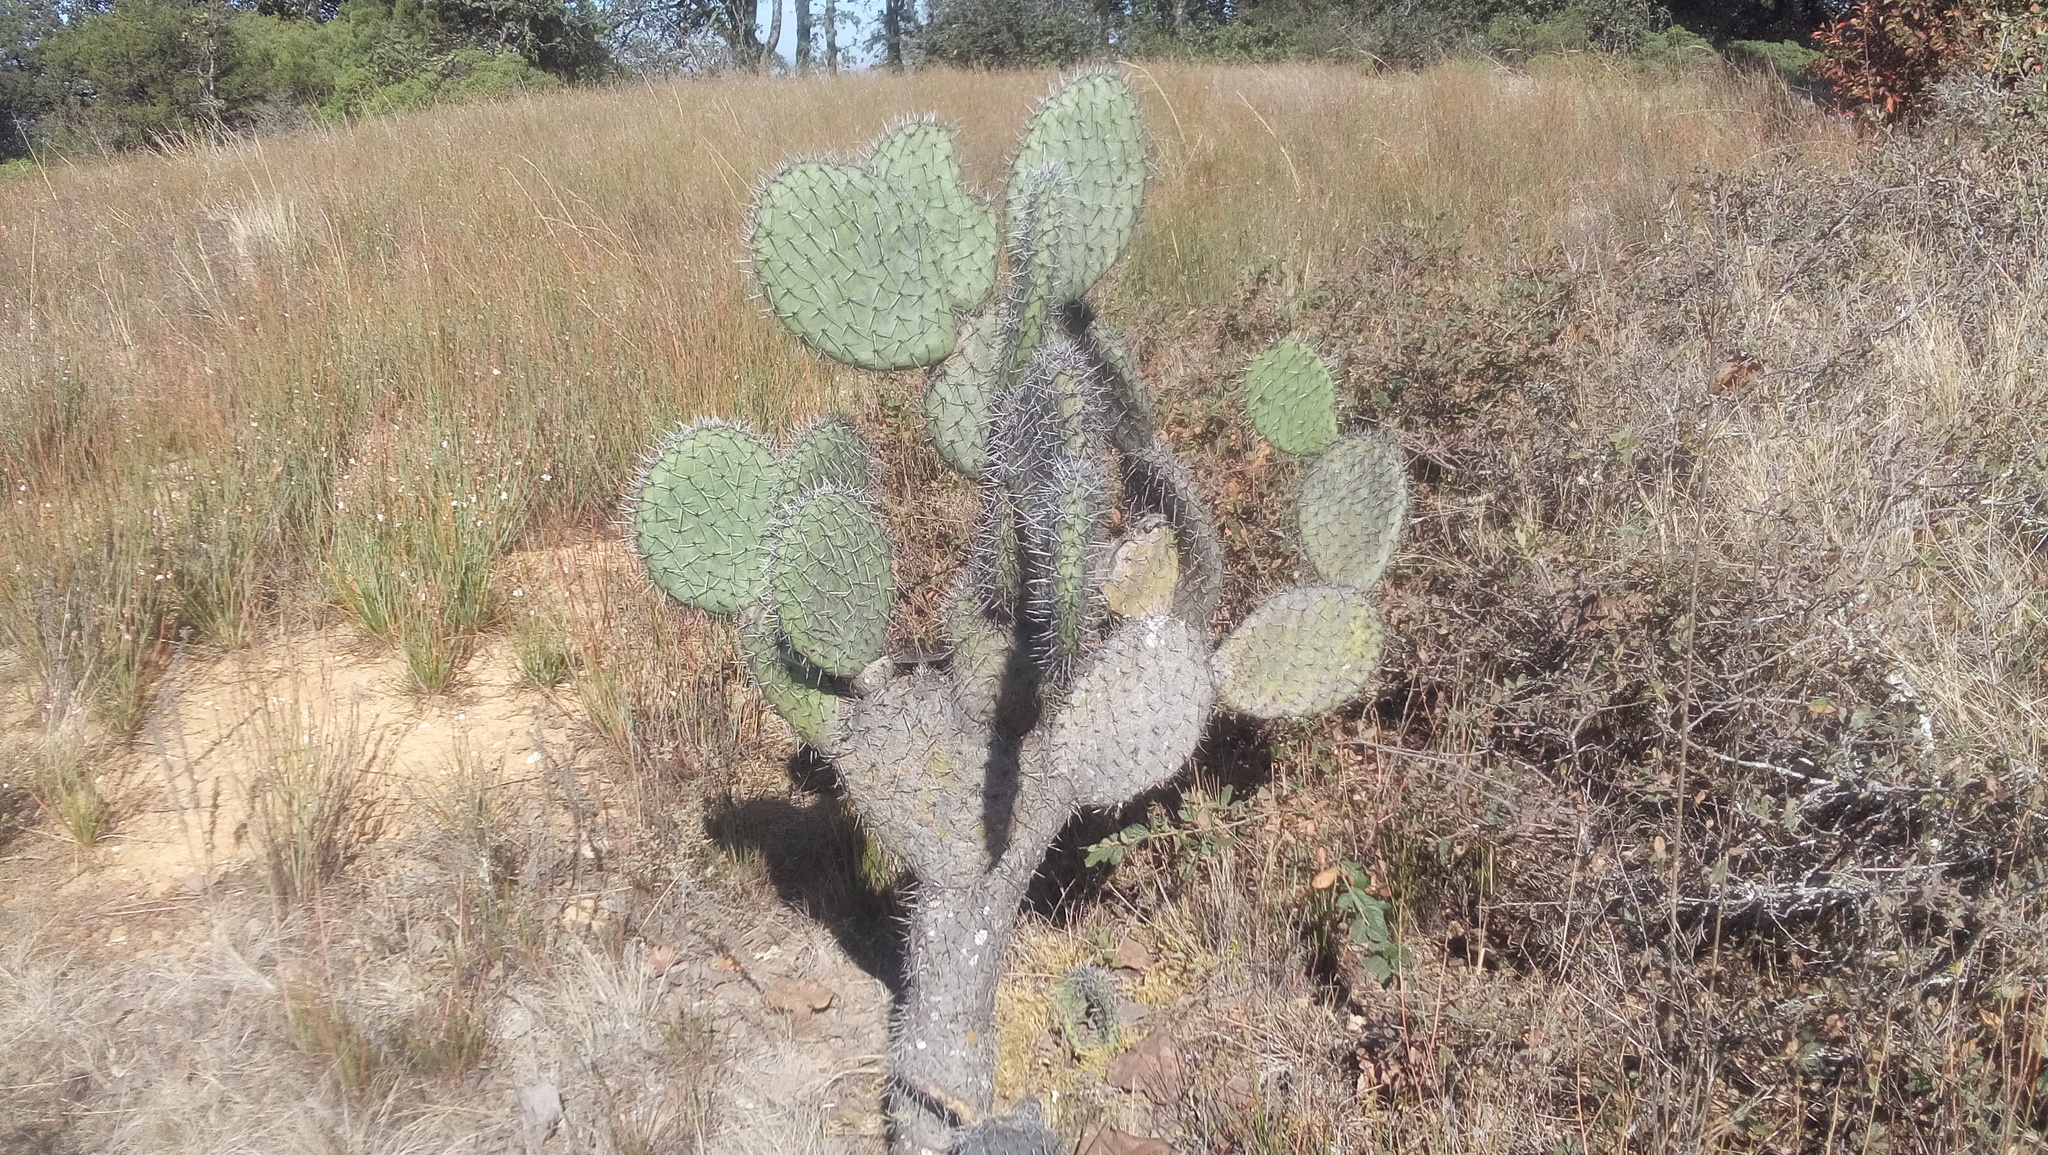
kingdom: Plantae
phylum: Tracheophyta
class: Magnoliopsida
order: Caryophyllales
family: Cactaceae
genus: Opuntia
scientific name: Opuntia streptacantha
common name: Gracemere-pear
